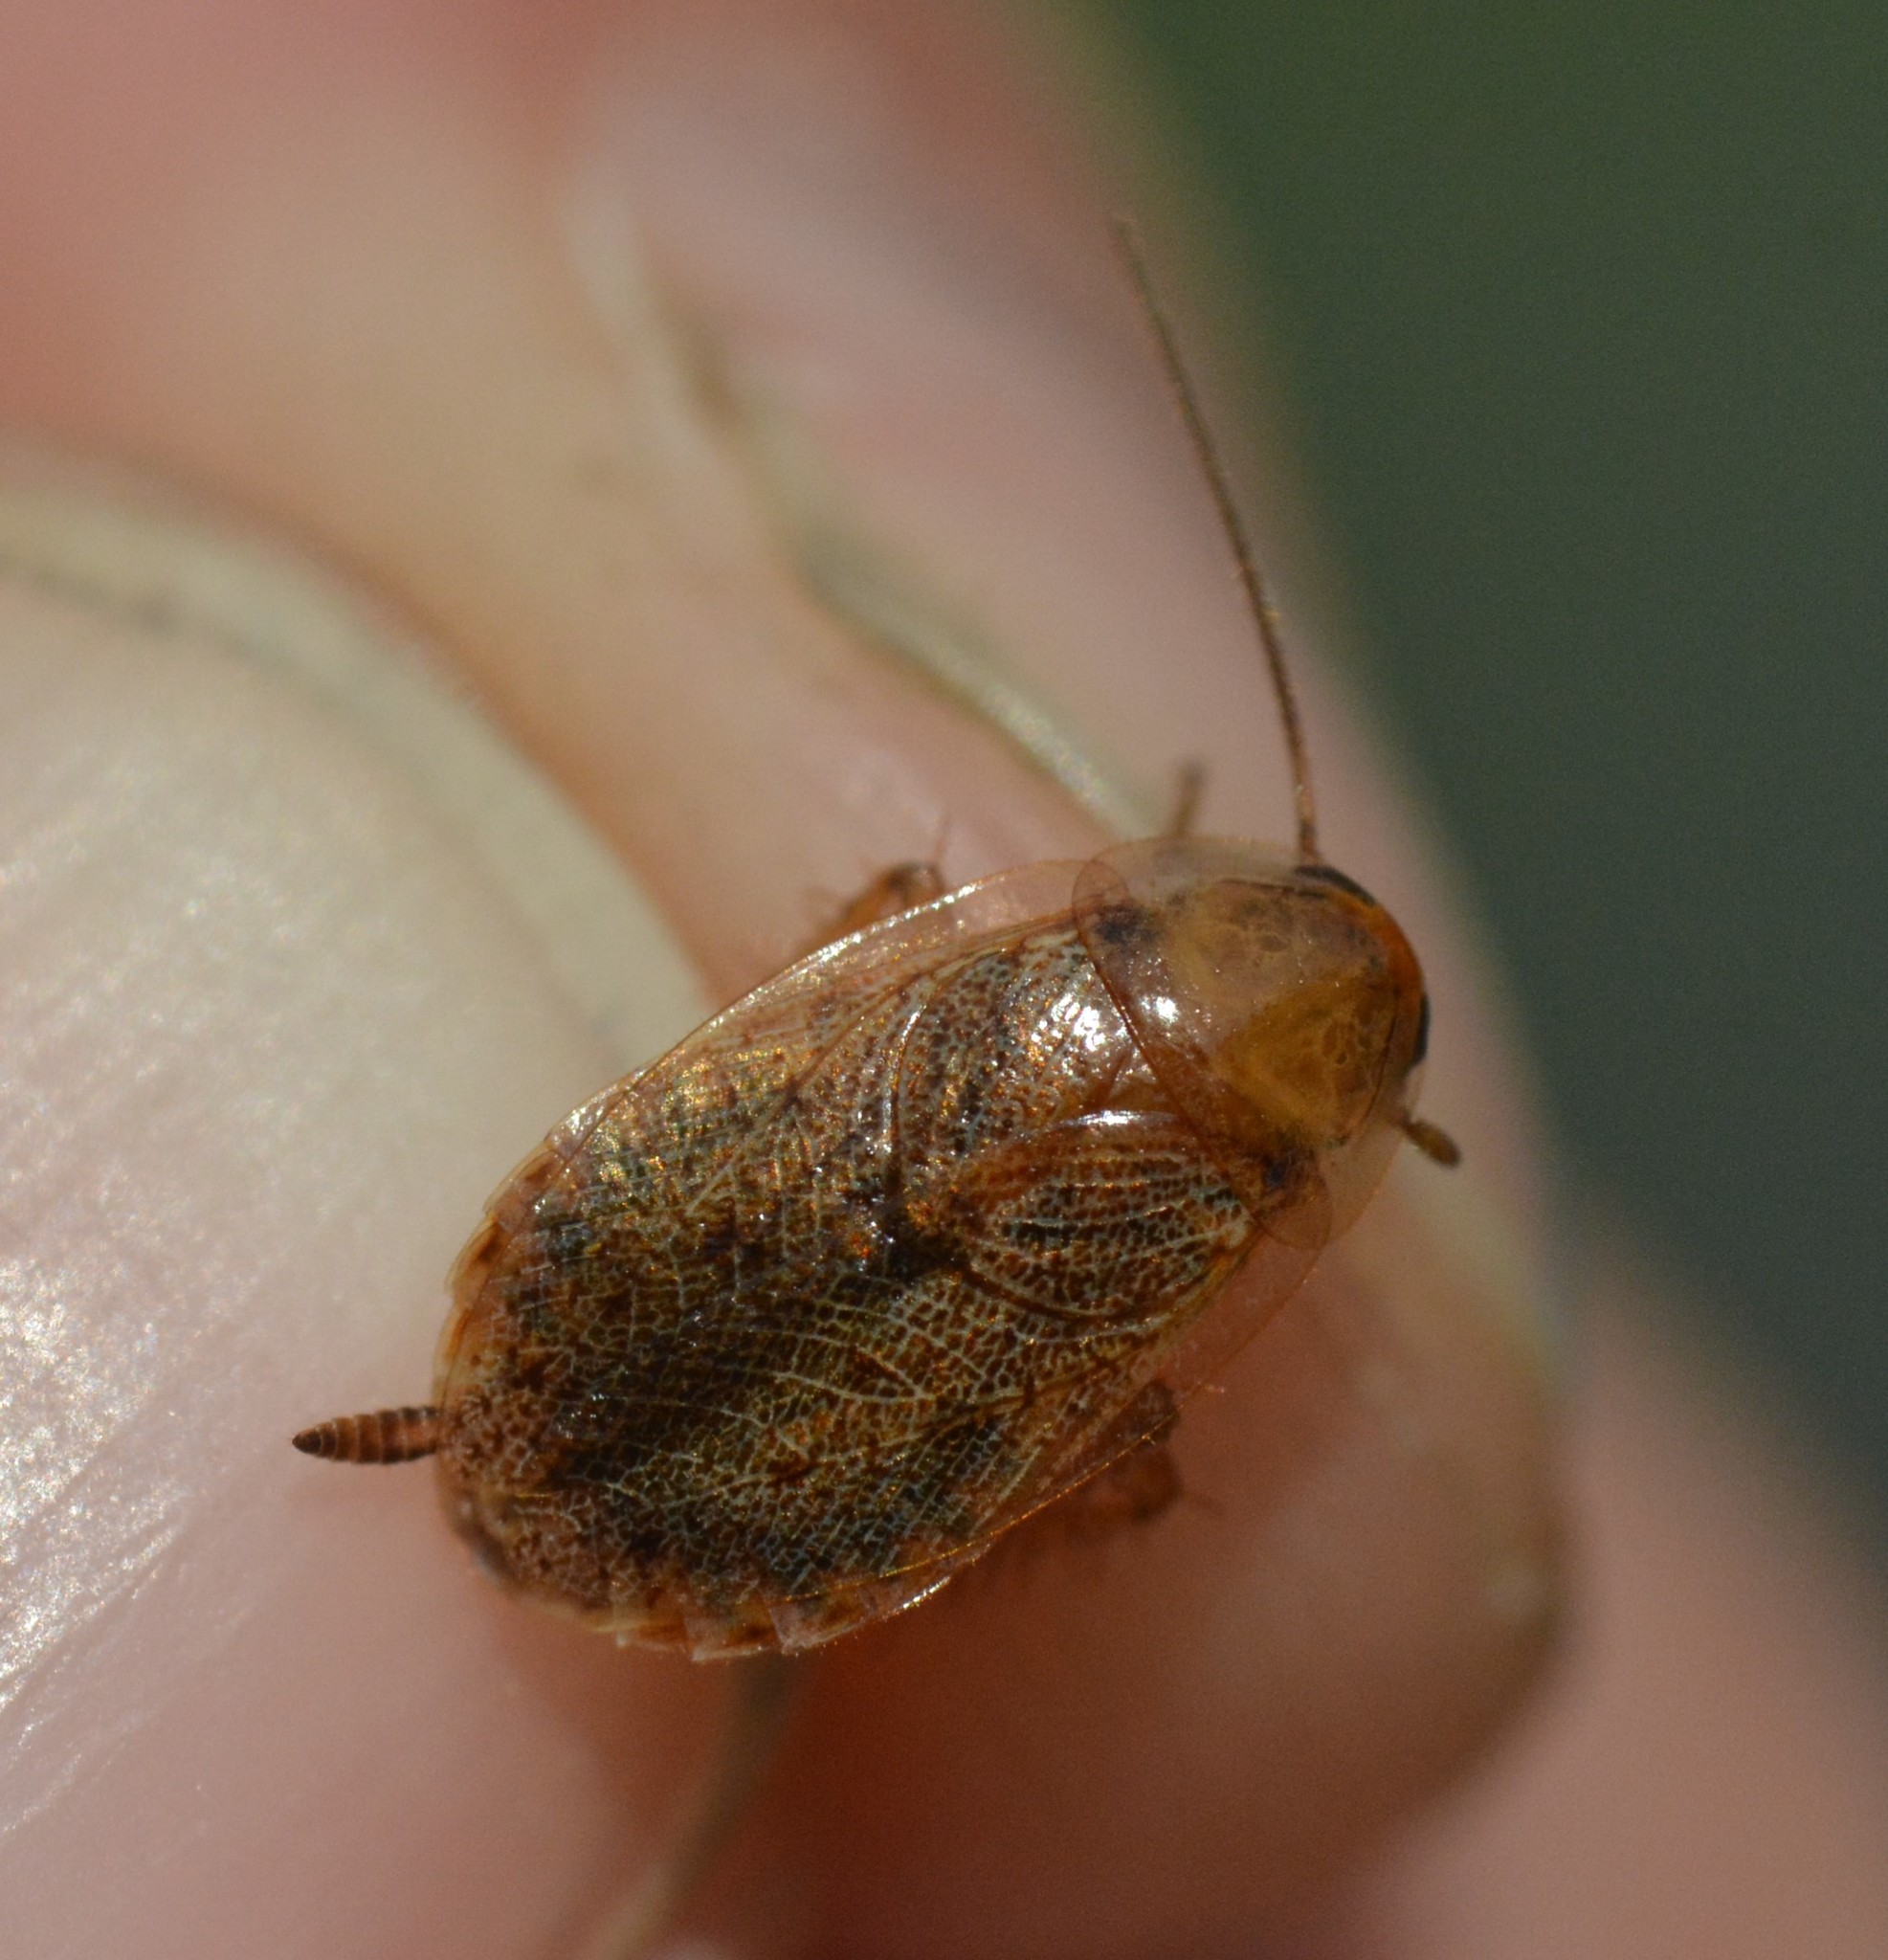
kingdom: Animalia
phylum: Arthropoda
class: Insecta
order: Blattodea
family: Ectobiidae
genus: Ectobius
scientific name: Ectobius lapponicus
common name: Dusky cockroach
